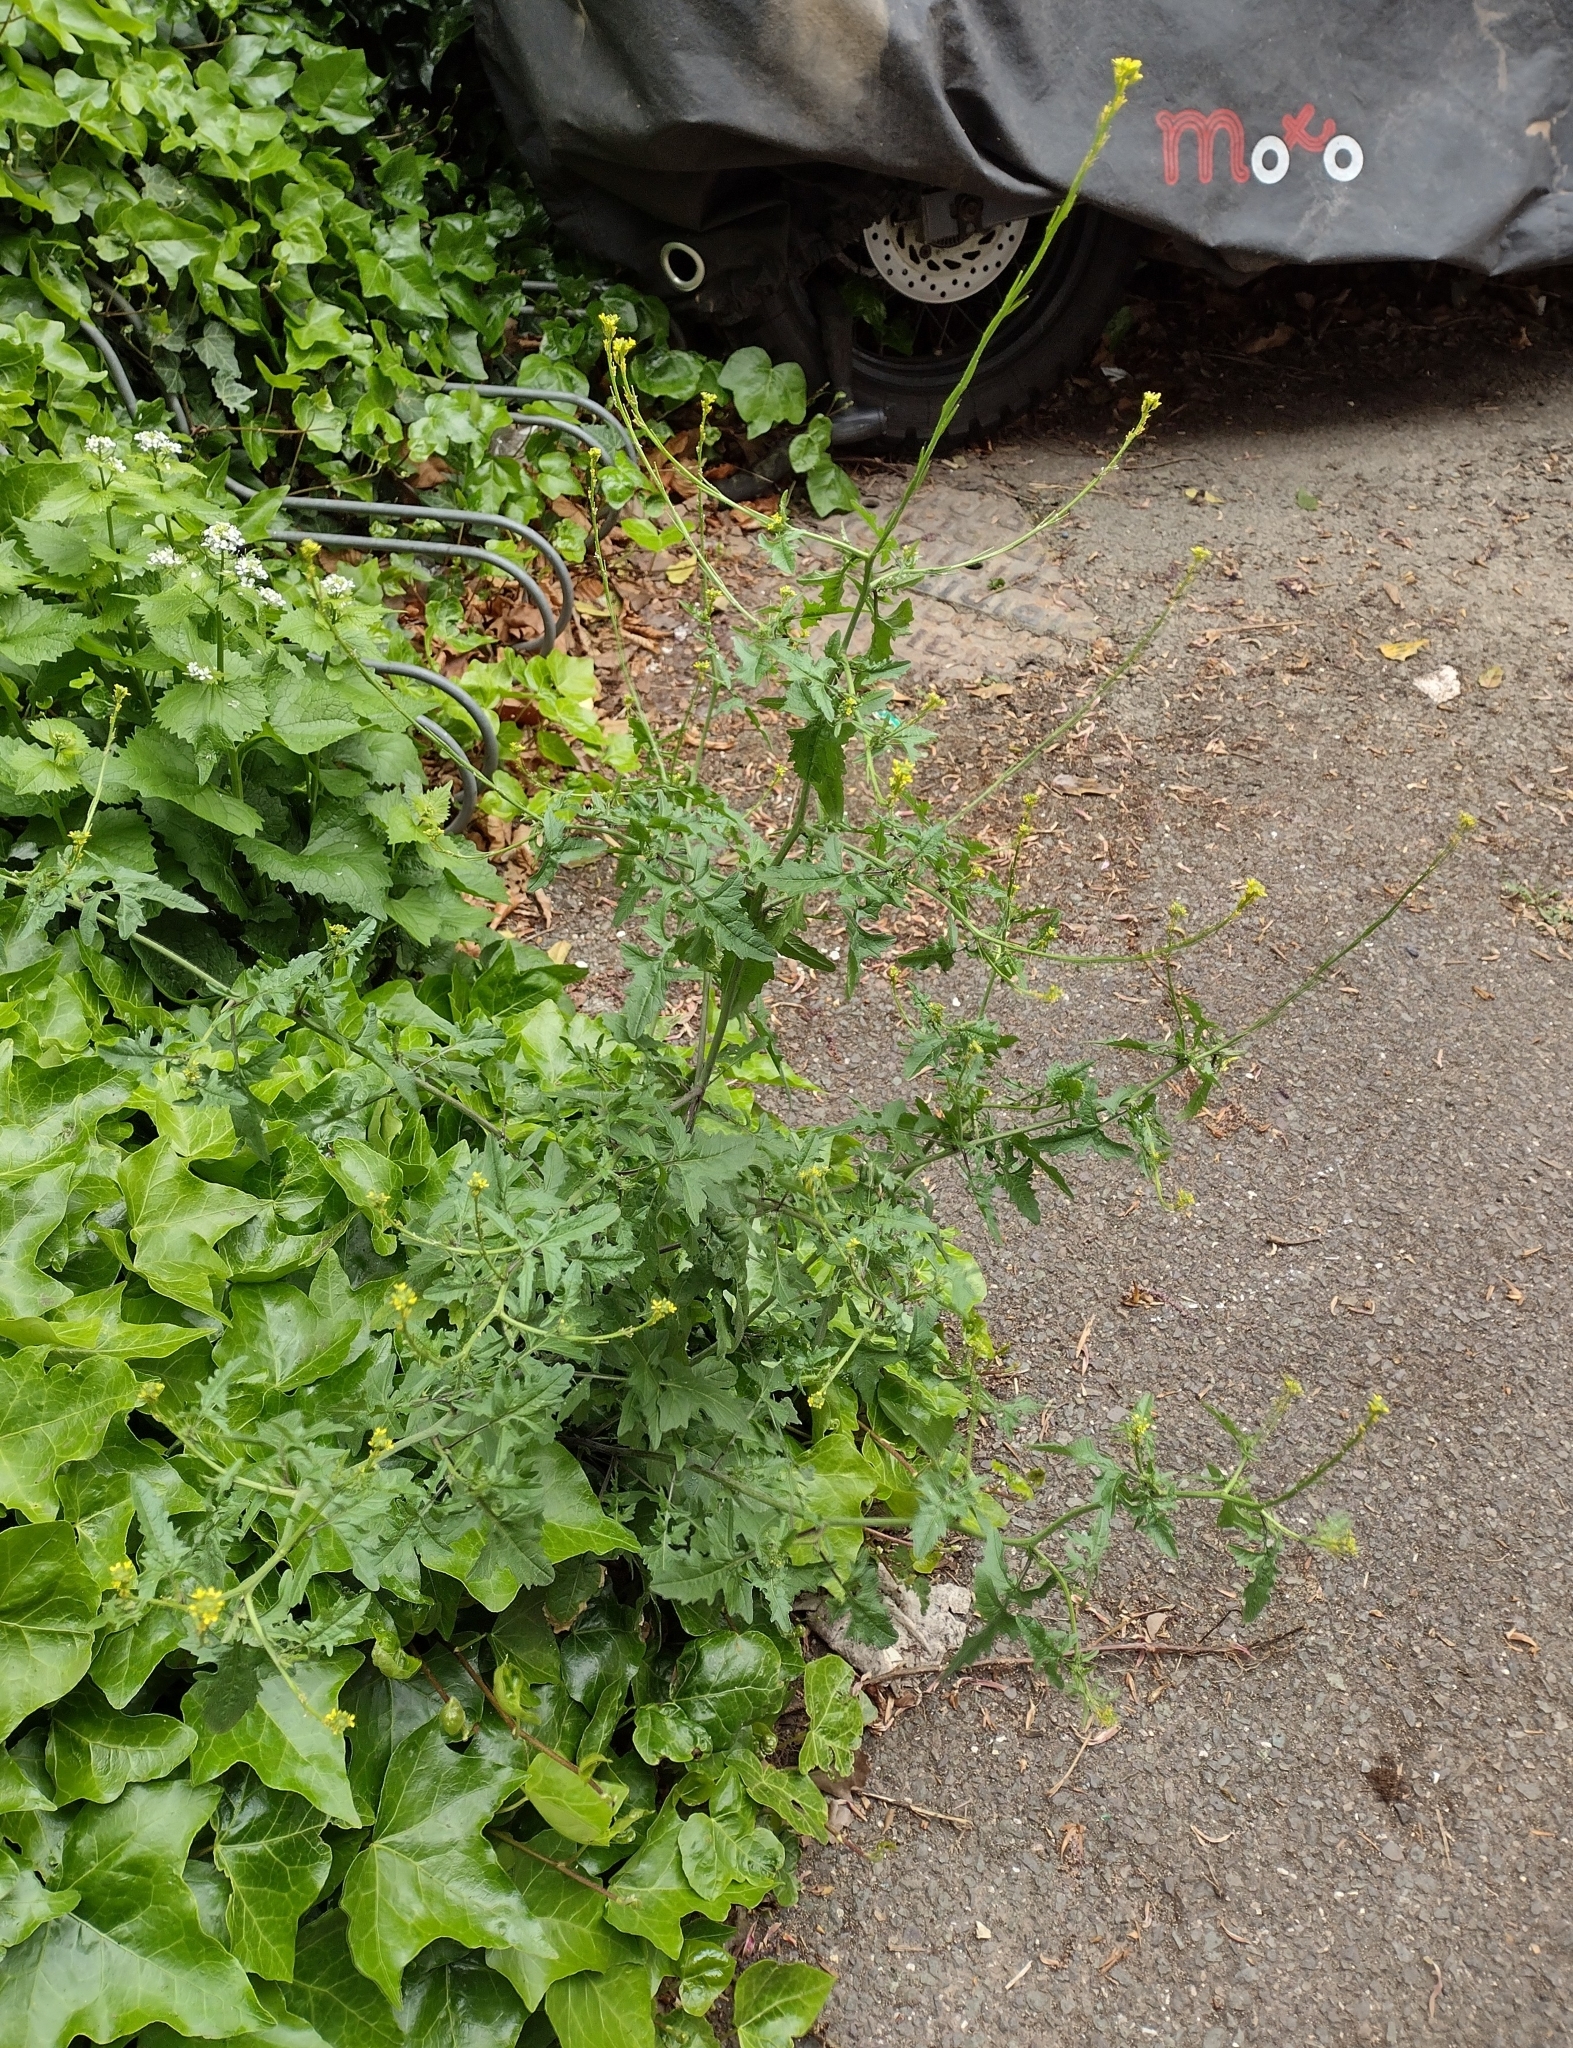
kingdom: Plantae
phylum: Tracheophyta
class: Magnoliopsida
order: Brassicales
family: Brassicaceae
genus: Sisymbrium
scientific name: Sisymbrium officinale
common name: Hedge mustard
